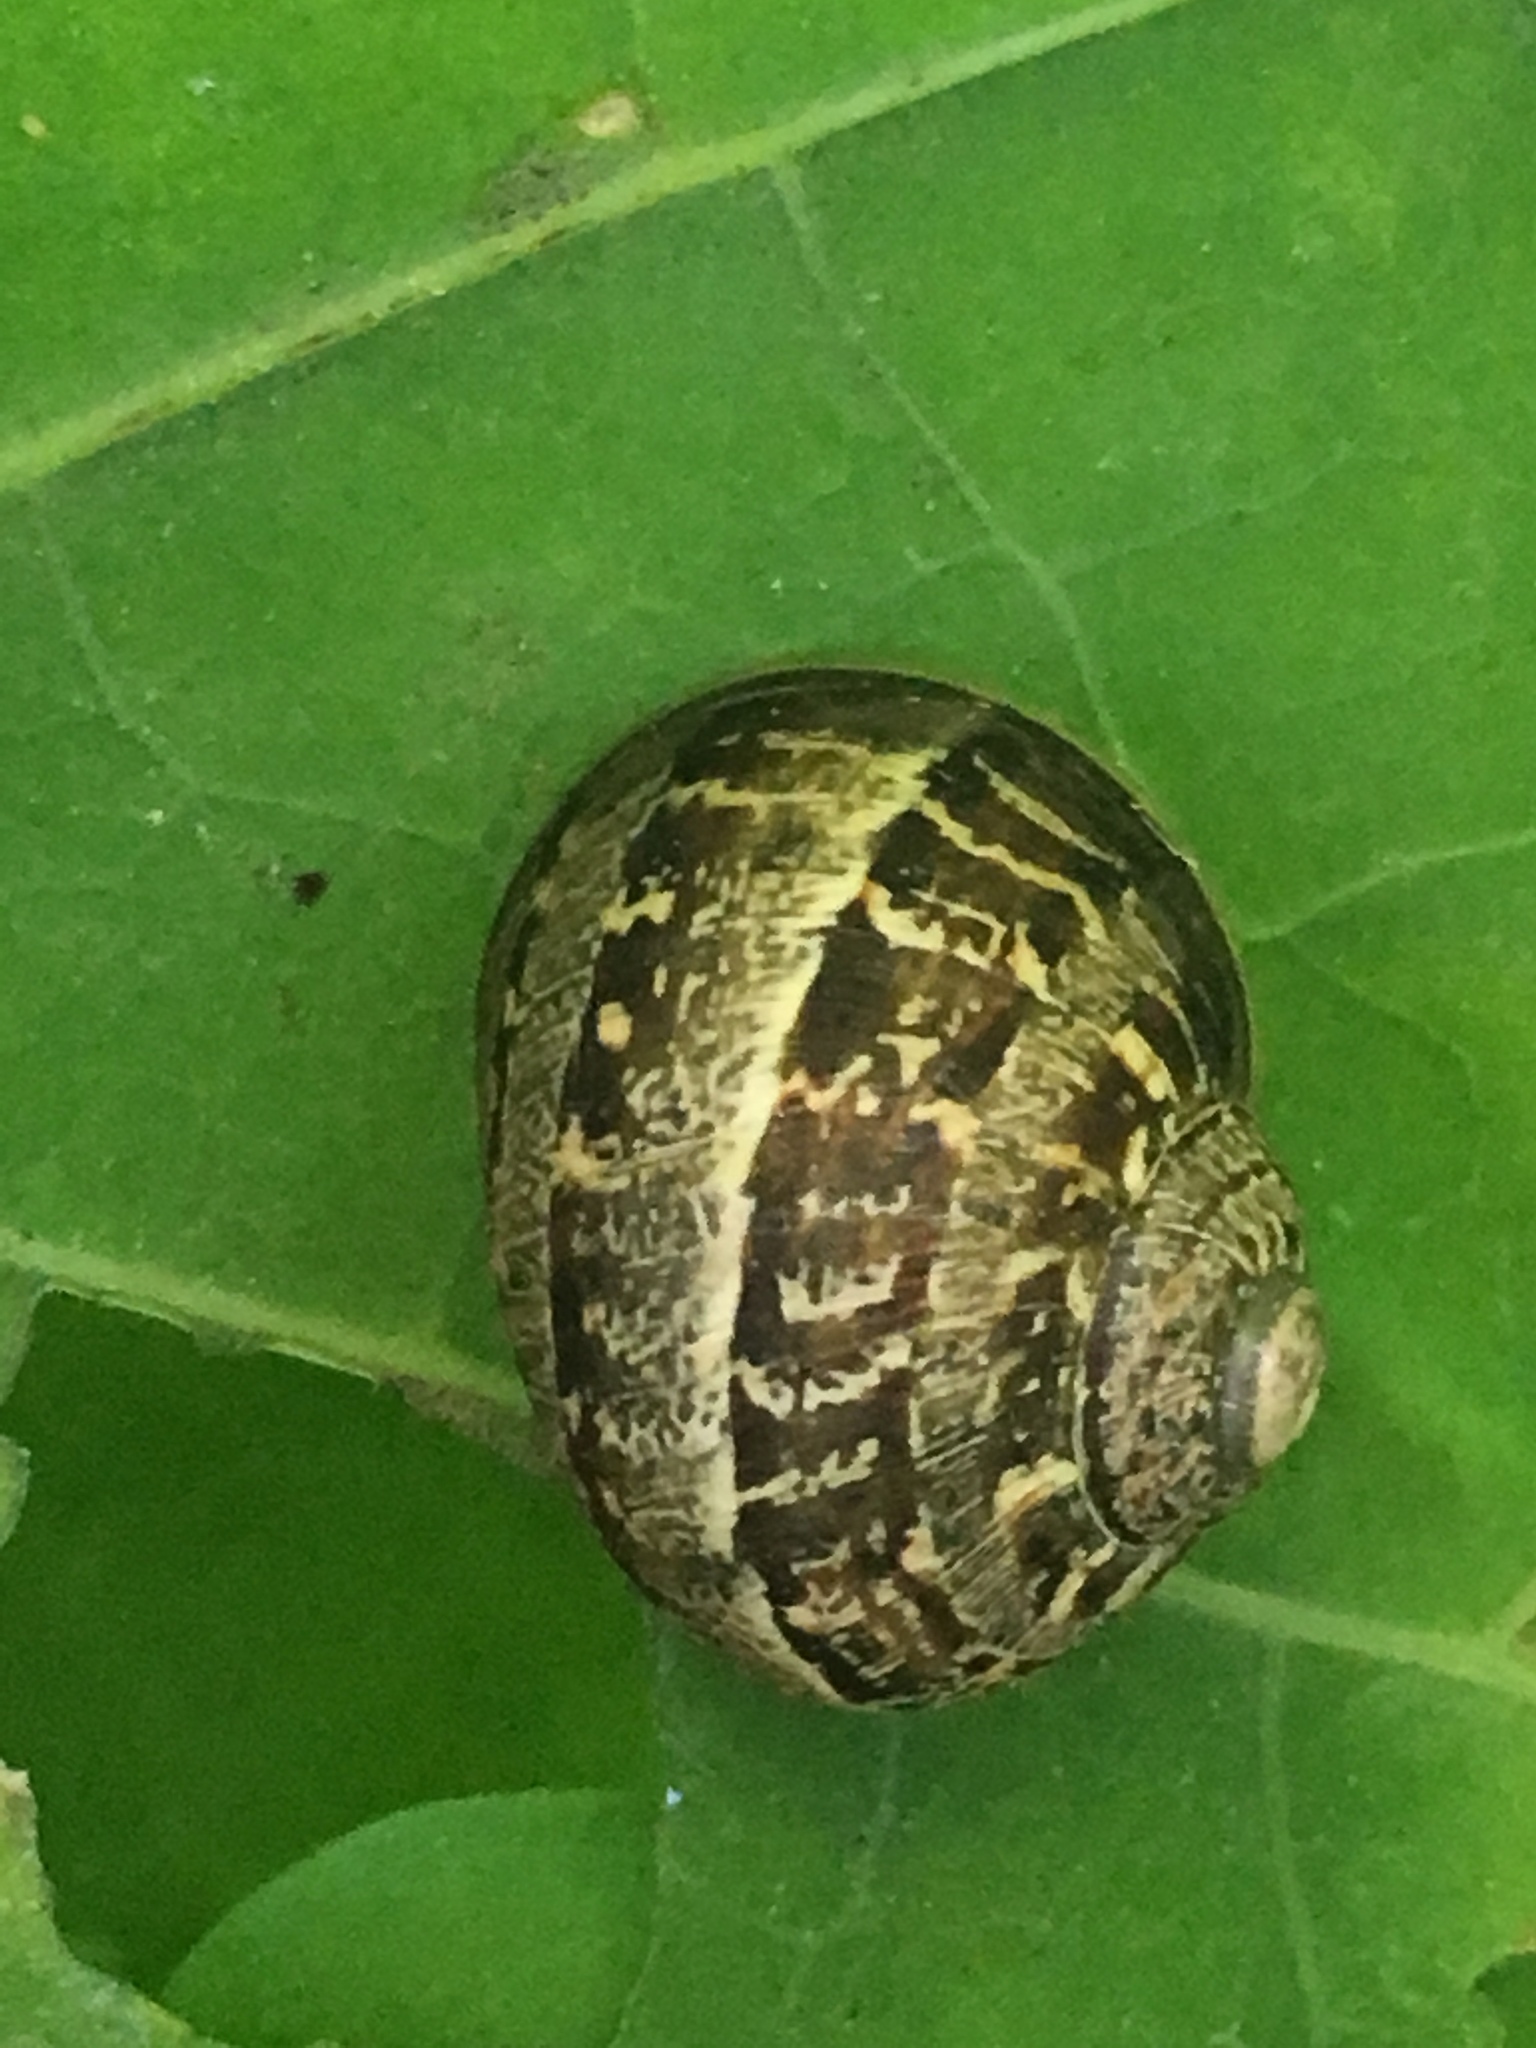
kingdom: Animalia
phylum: Mollusca
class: Gastropoda
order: Stylommatophora
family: Helicidae
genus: Cornu
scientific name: Cornu aspersum
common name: Brown garden snail
